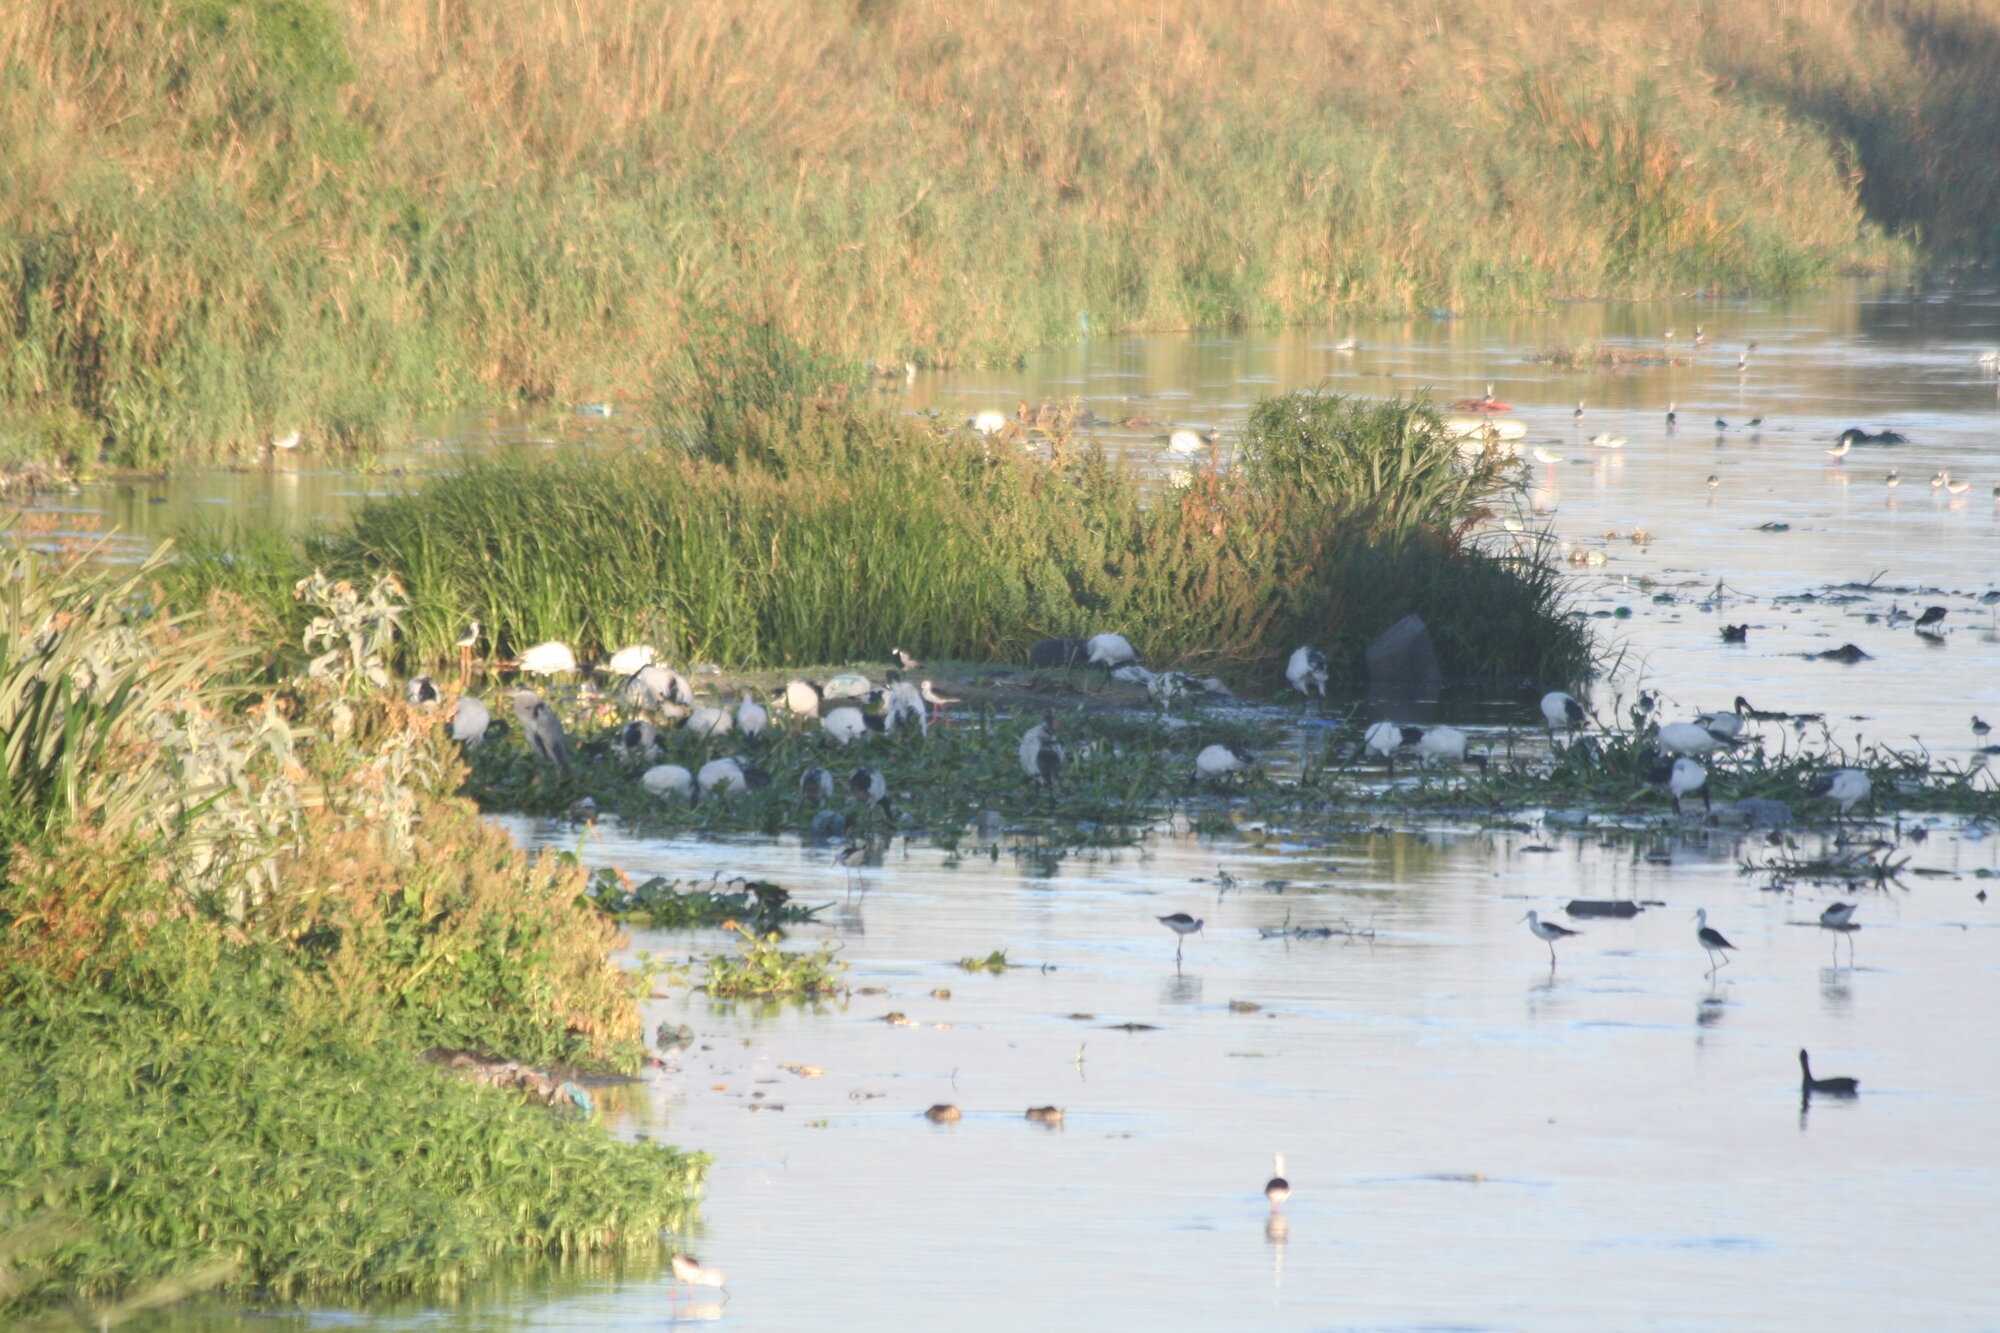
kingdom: Animalia
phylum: Chordata
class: Aves
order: Pelecaniformes
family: Threskiornithidae
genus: Threskiornis
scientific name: Threskiornis aethiopicus
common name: Sacred ibis
